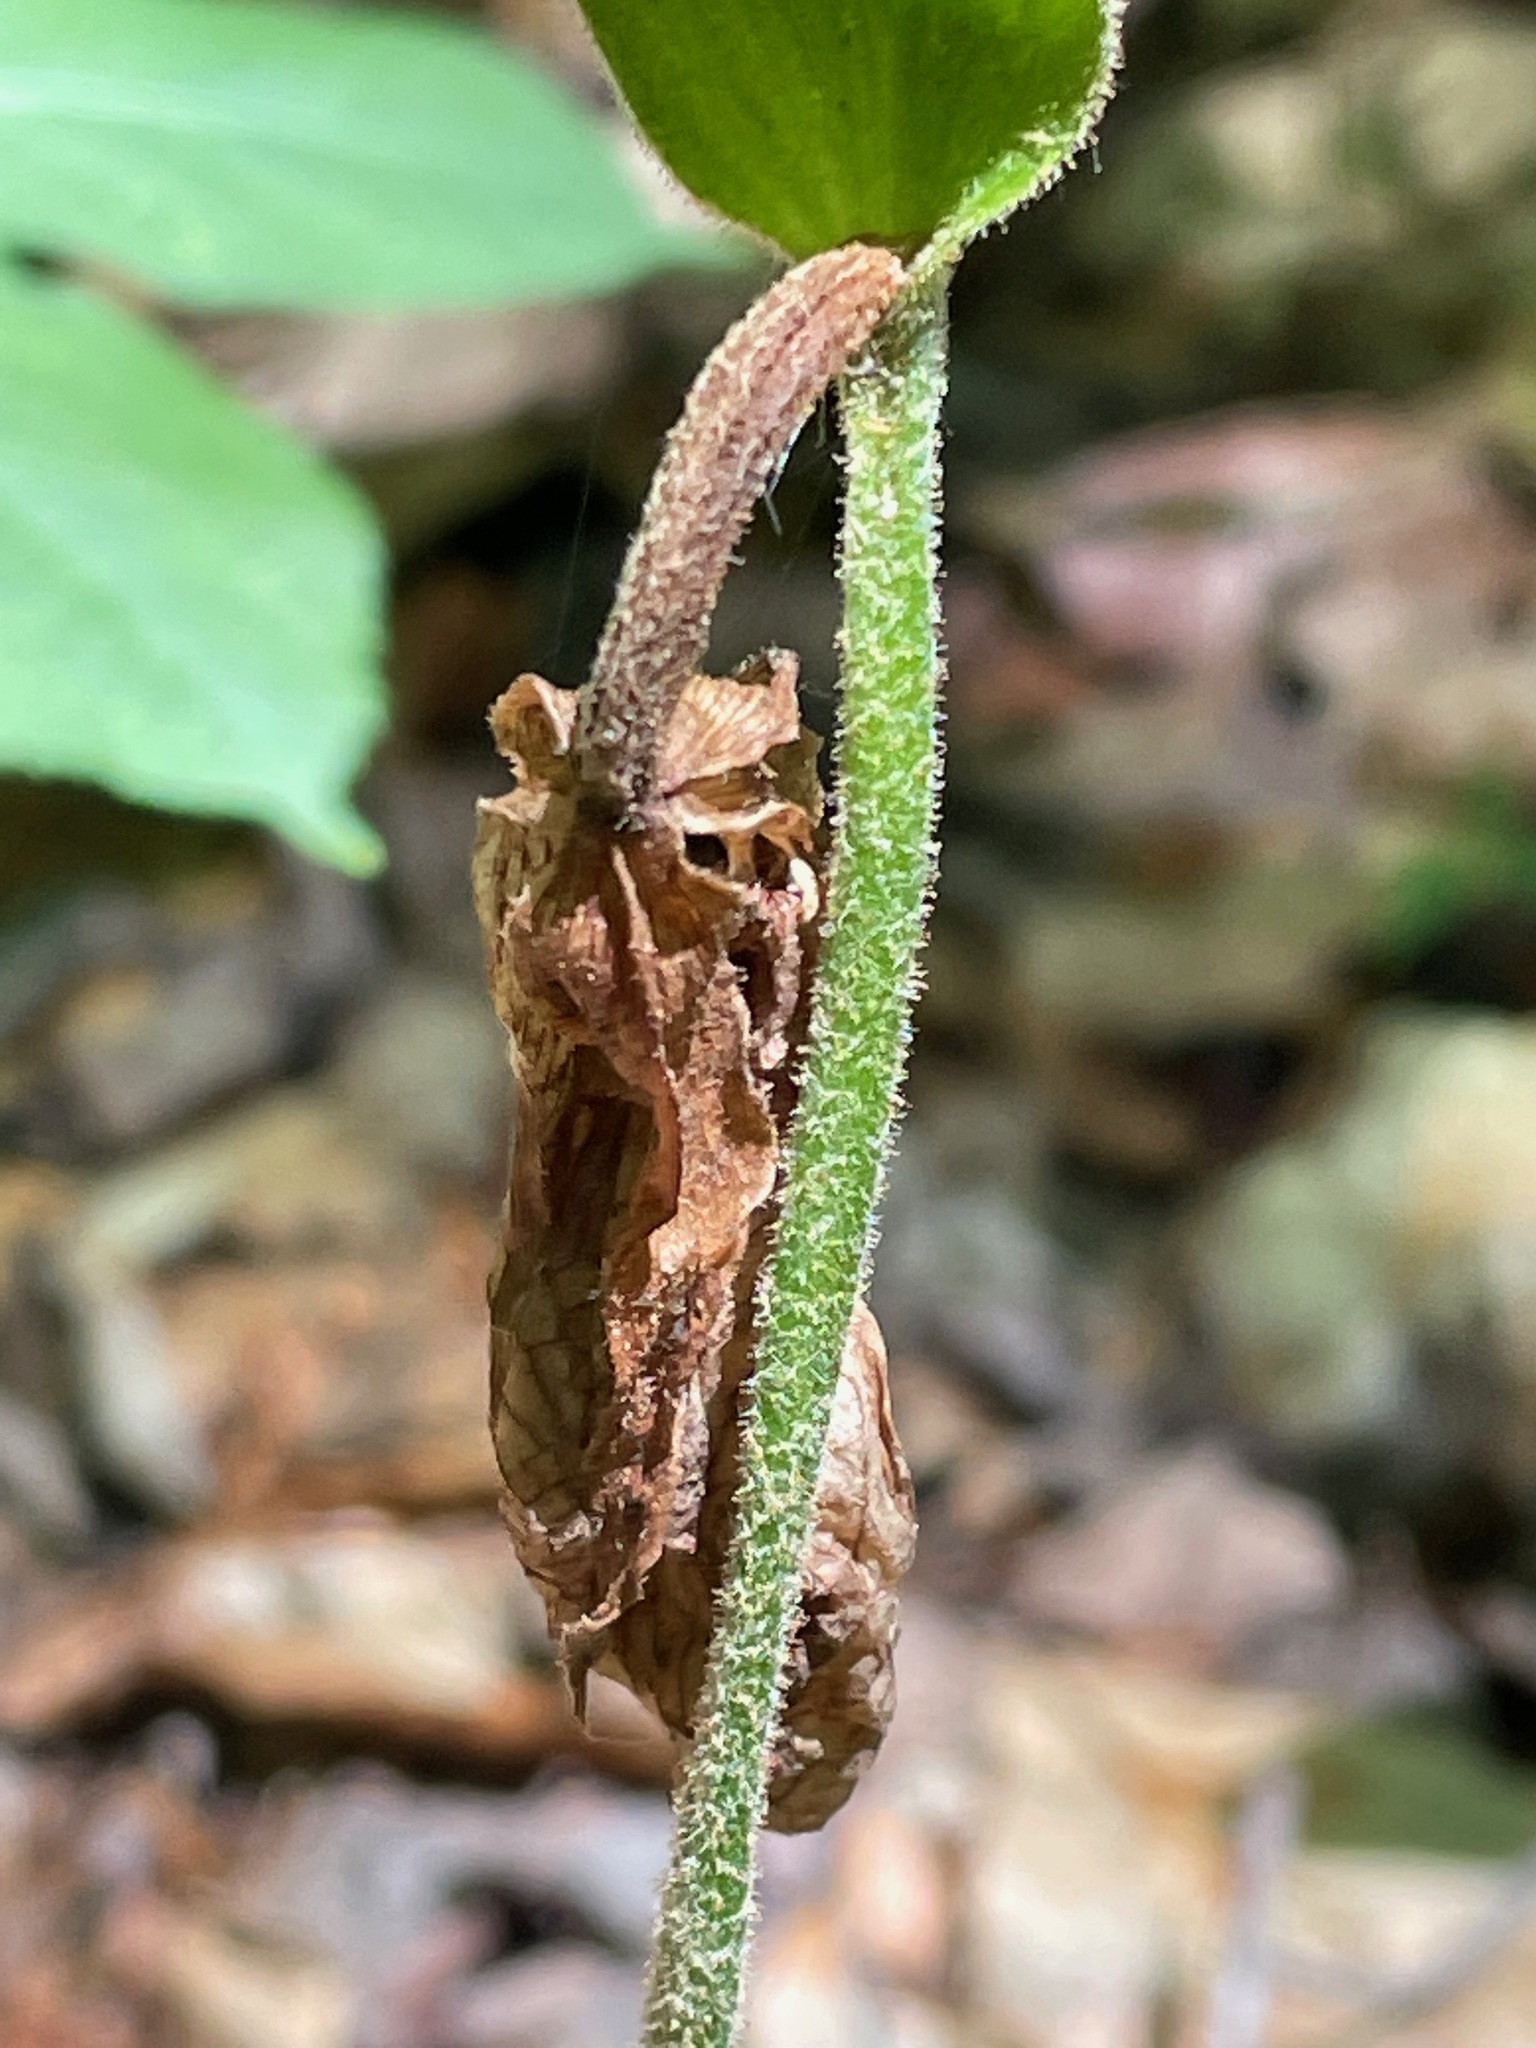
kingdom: Plantae
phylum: Tracheophyta
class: Liliopsida
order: Asparagales
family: Orchidaceae
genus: Cypripedium
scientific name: Cypripedium acaule
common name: Pink lady's-slipper
